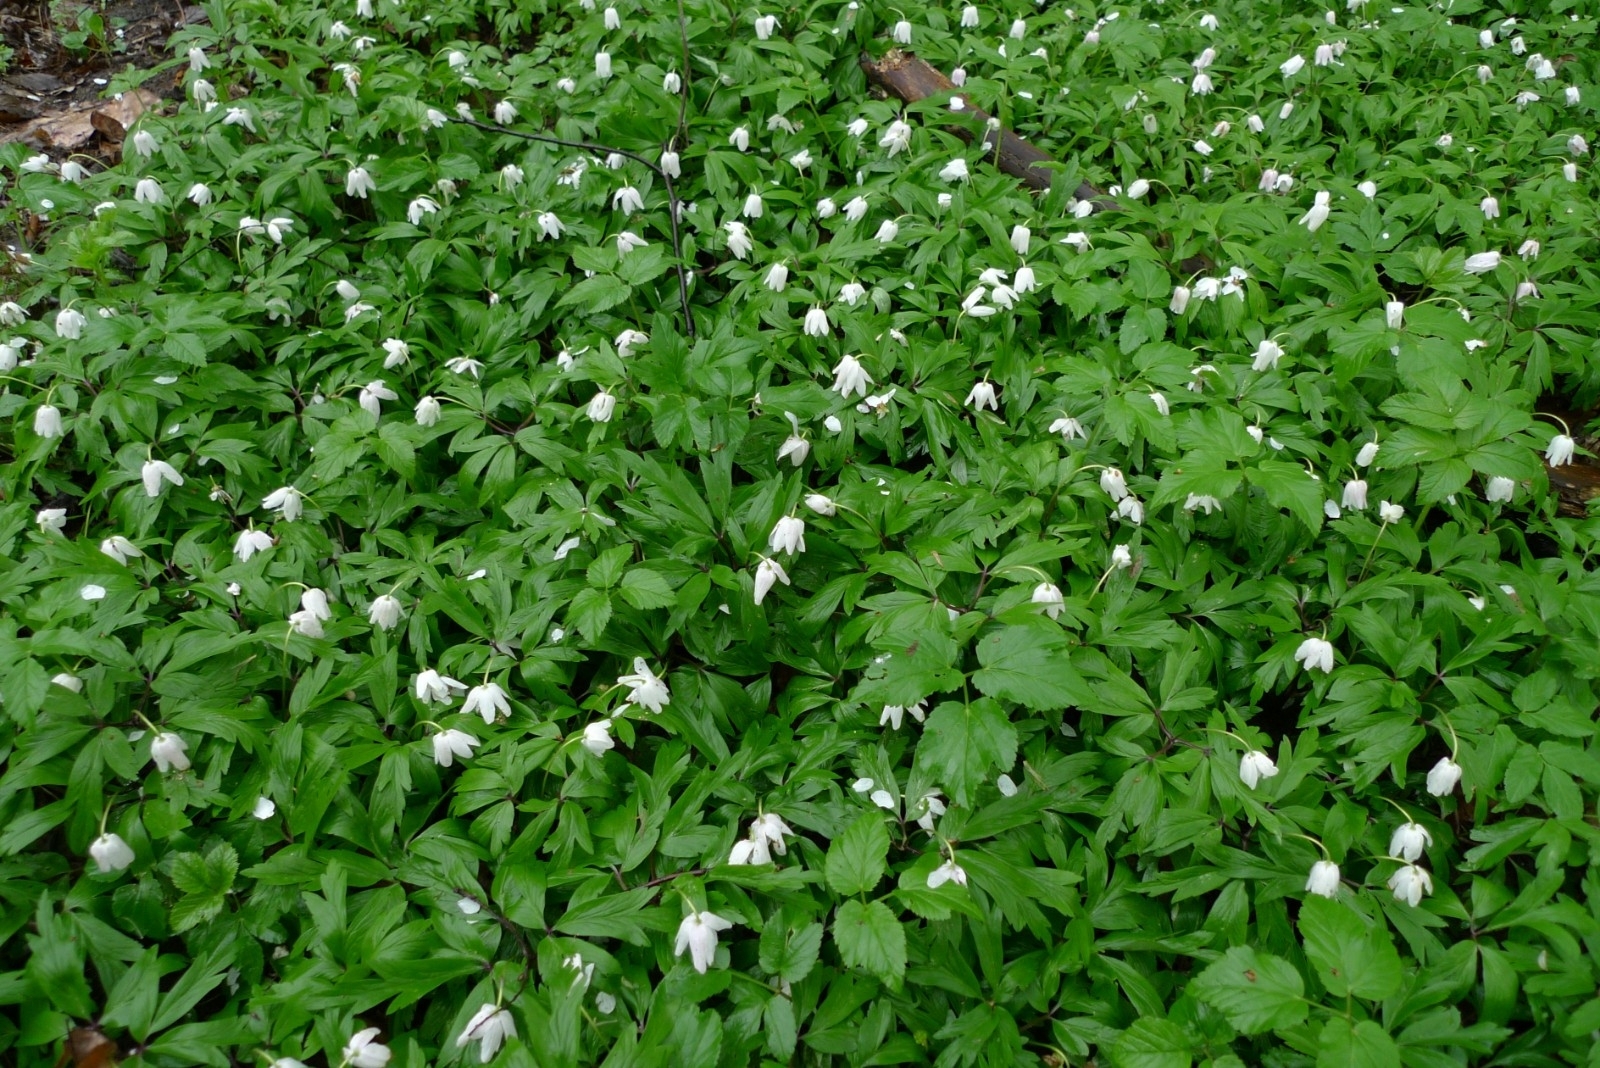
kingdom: Plantae
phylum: Tracheophyta
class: Magnoliopsida
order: Ranunculales
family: Ranunculaceae
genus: Anemone
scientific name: Anemone nemorosa
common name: Wood anemone
